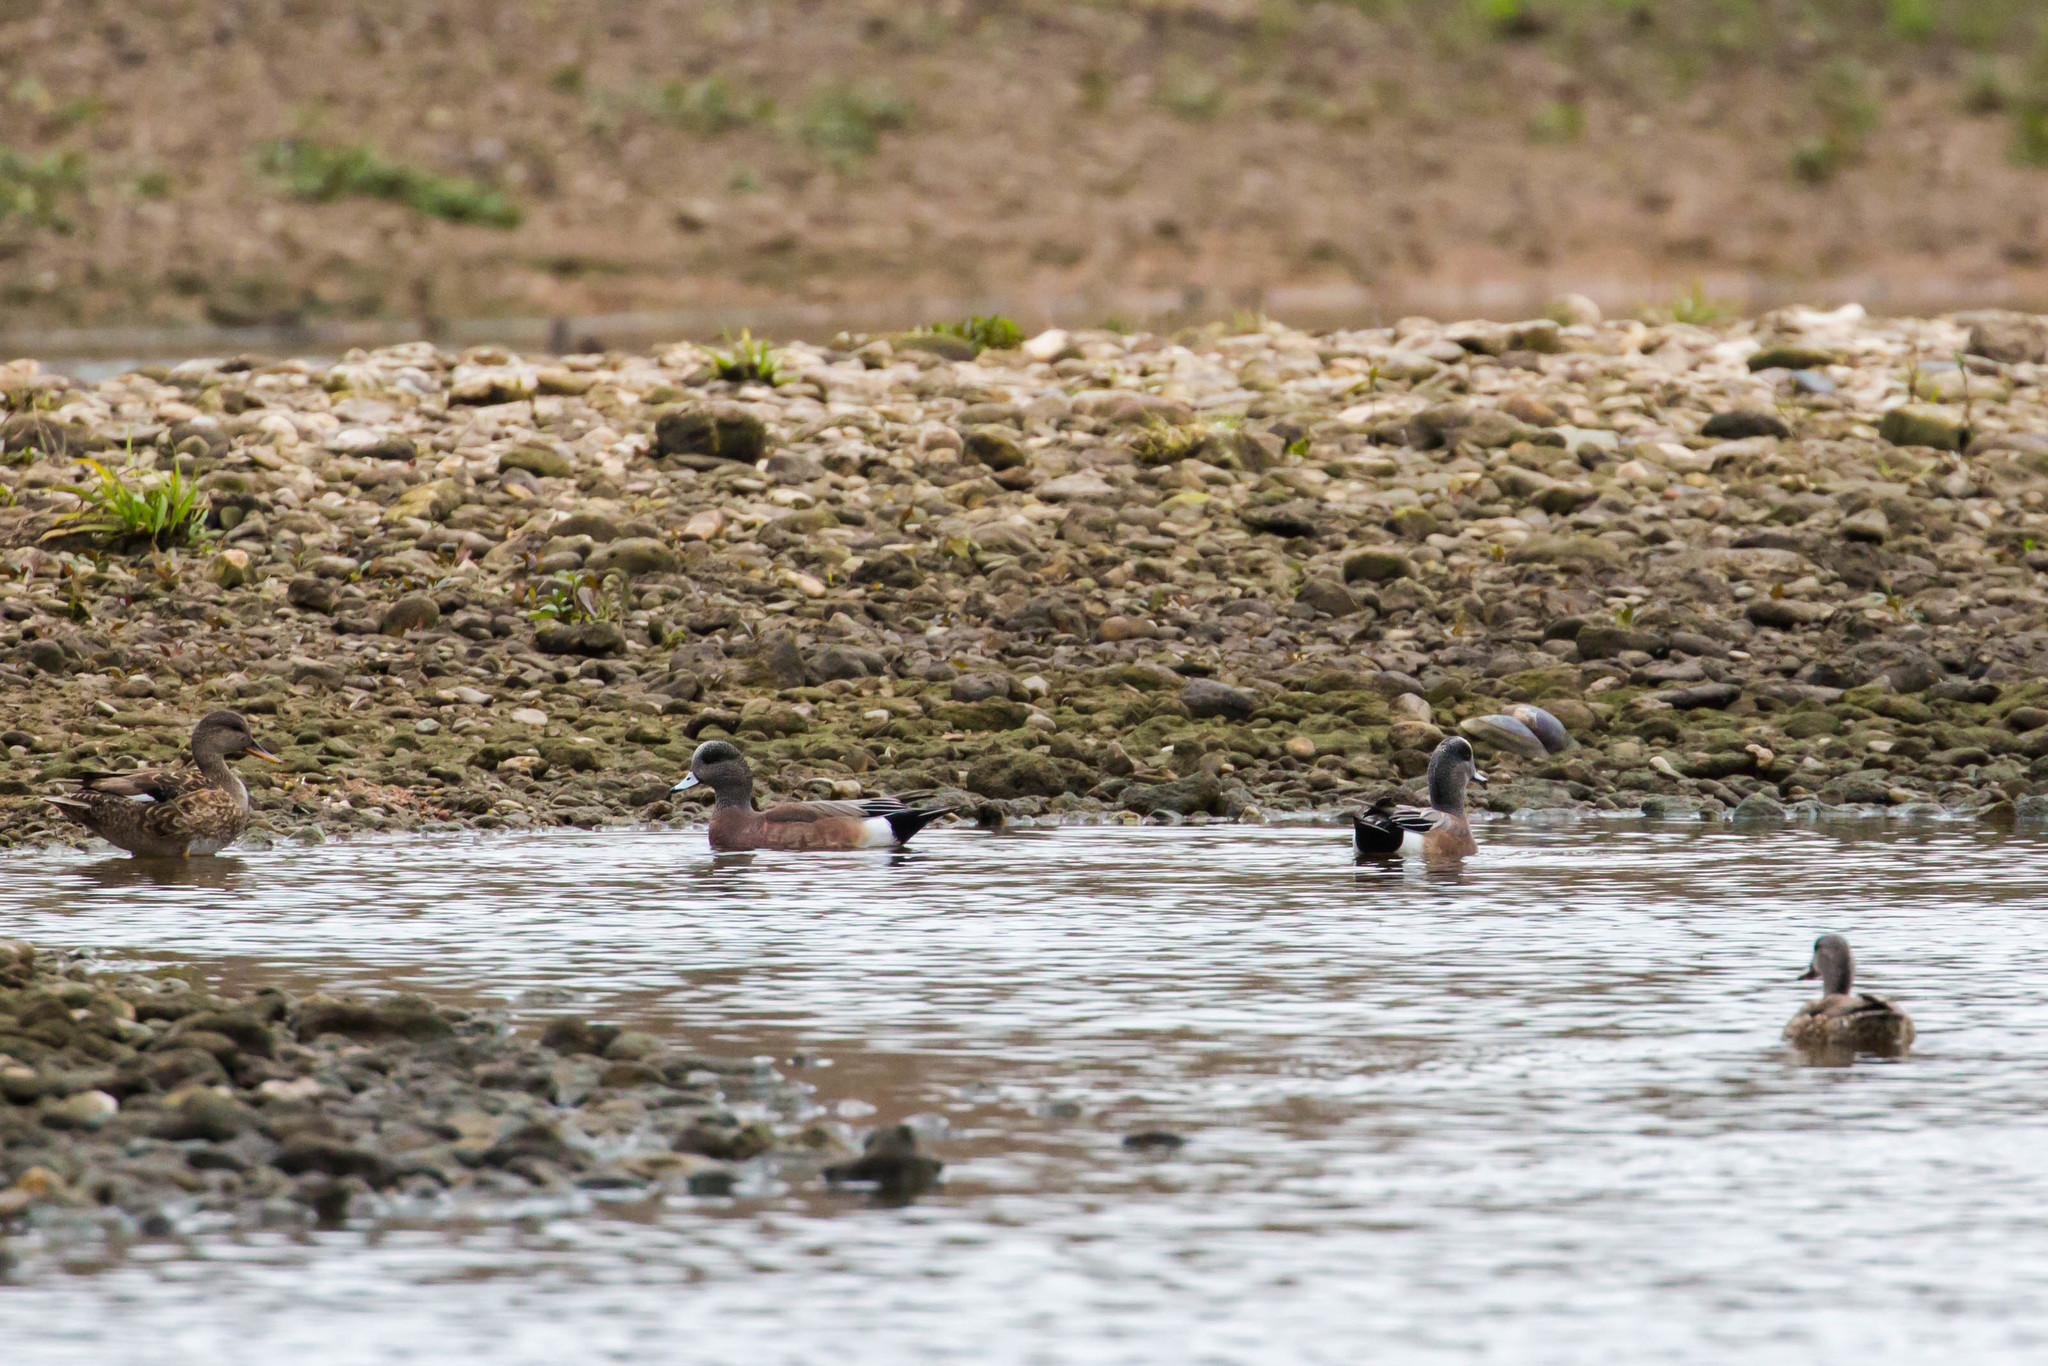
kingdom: Animalia
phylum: Chordata
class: Aves
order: Anseriformes
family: Anatidae
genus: Mareca
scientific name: Mareca americana
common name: American wigeon
